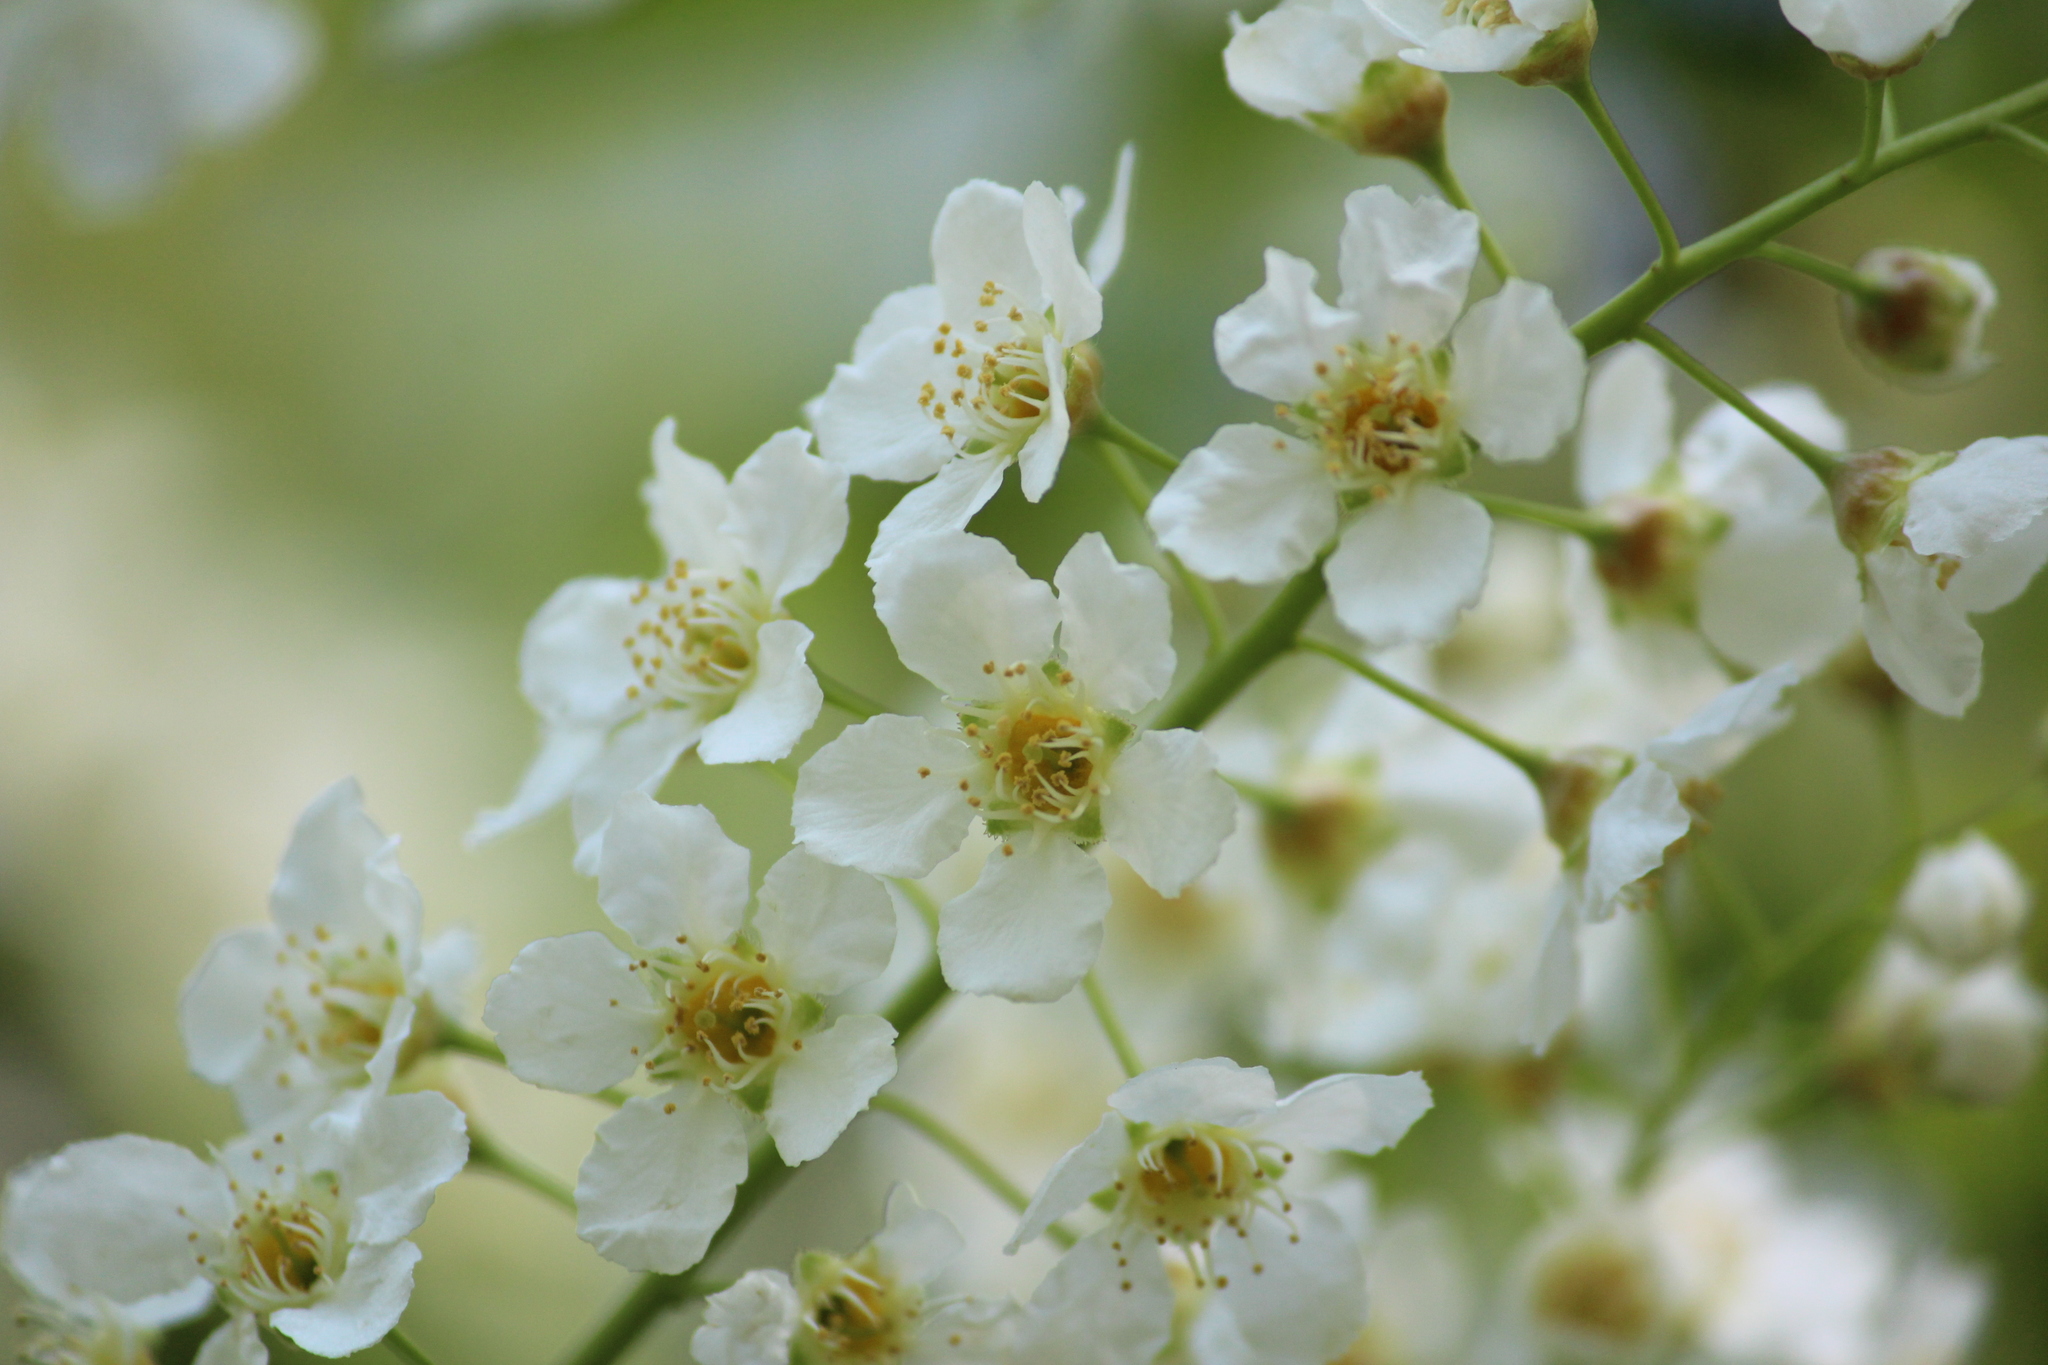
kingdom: Plantae
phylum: Tracheophyta
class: Magnoliopsida
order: Rosales
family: Rosaceae
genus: Prunus
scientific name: Prunus padus
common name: Bird cherry
